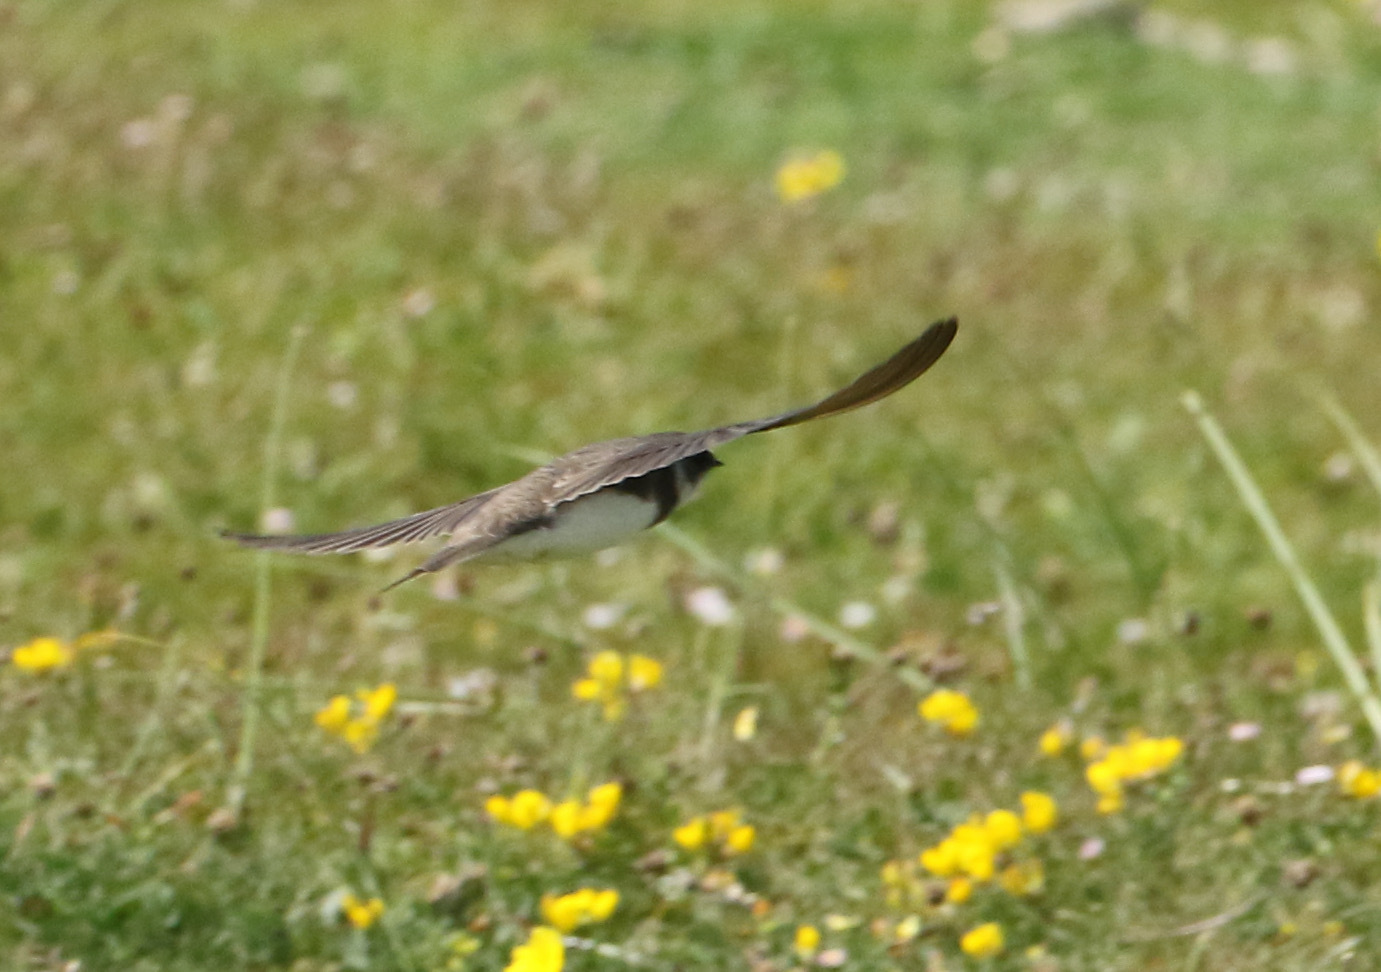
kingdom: Animalia
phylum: Chordata
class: Aves
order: Passeriformes
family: Hirundinidae
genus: Riparia
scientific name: Riparia riparia
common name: Sand martin
